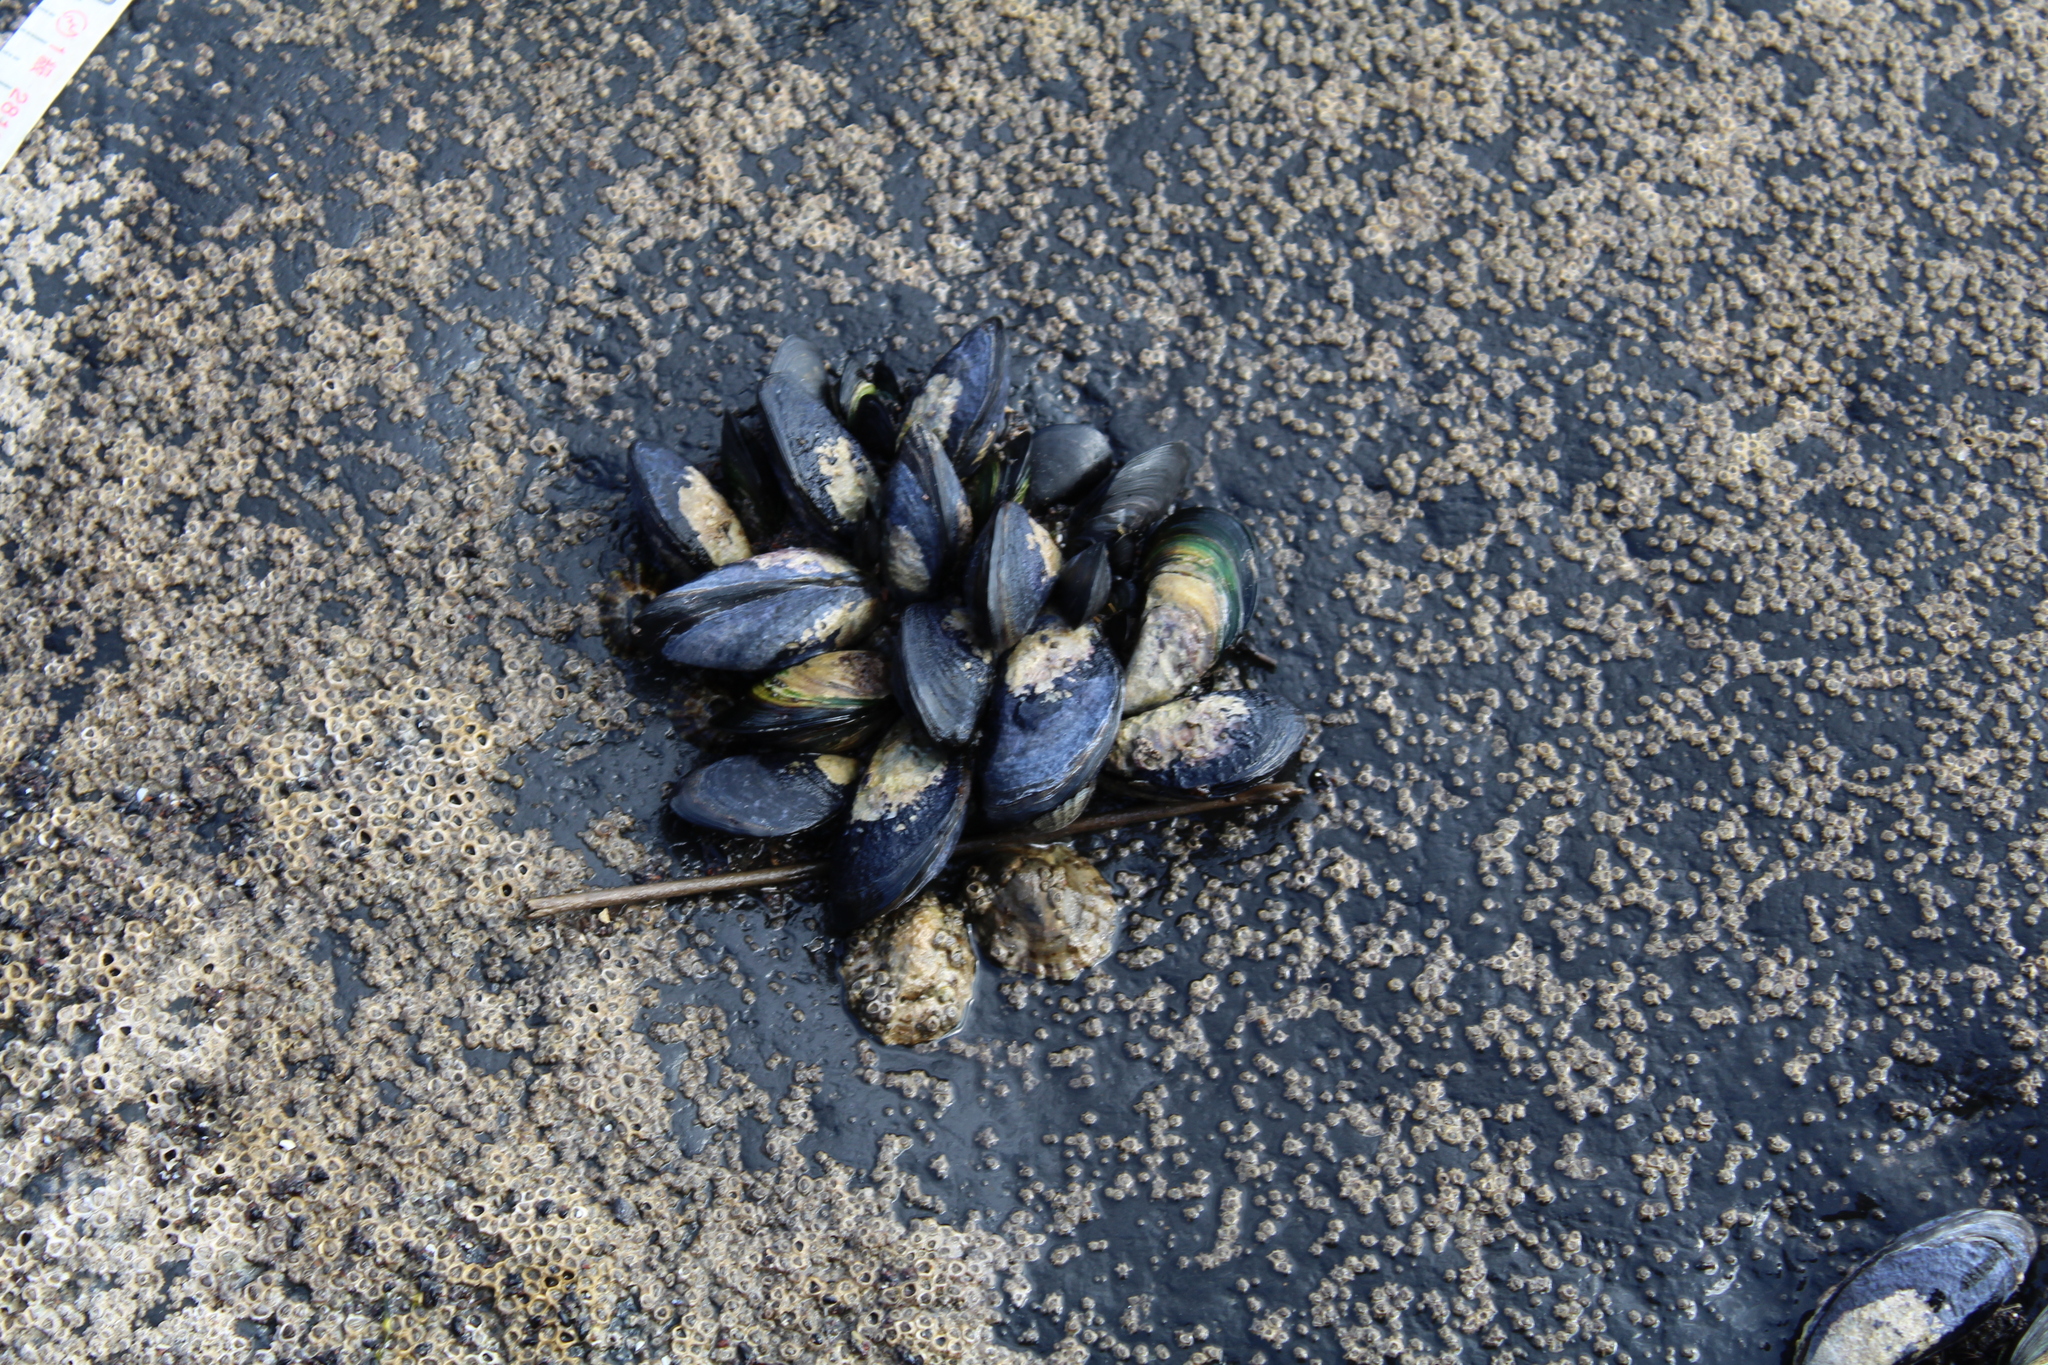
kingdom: Animalia
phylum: Mollusca
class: Bivalvia
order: Mytilida
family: Mytilidae
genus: Mytilus
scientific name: Mytilus planulatus
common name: Australian mussel
